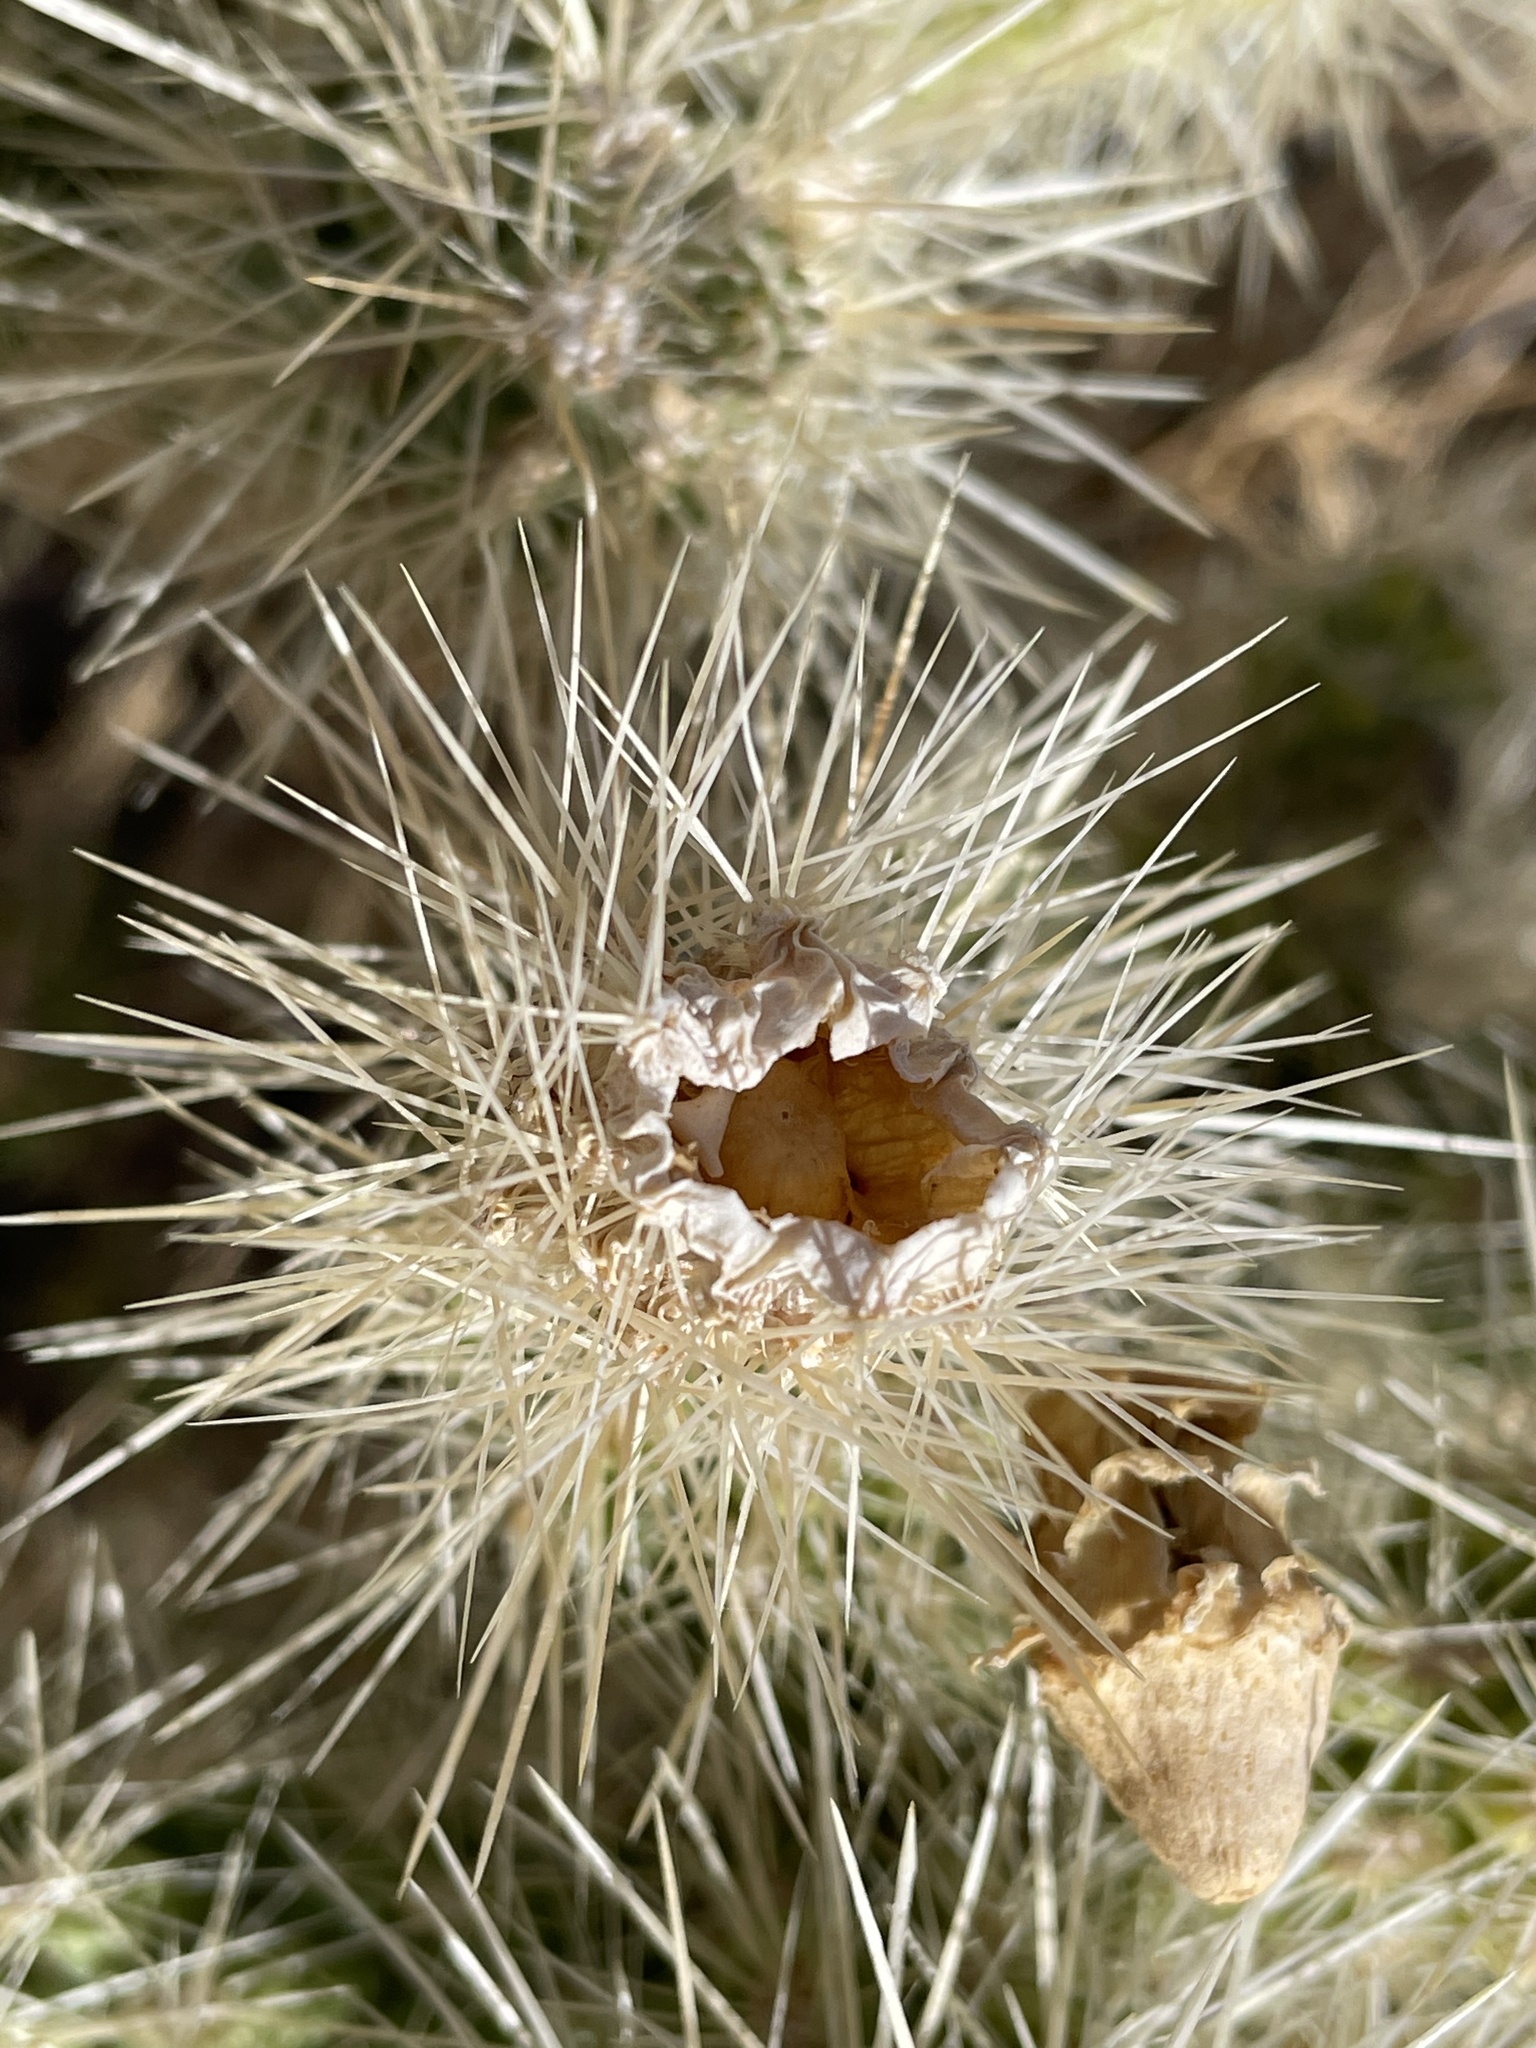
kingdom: Plantae
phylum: Tracheophyta
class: Magnoliopsida
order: Caryophyllales
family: Cactaceae
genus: Cylindropuntia
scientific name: Cylindropuntia echinocarpa
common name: Ground cholla
